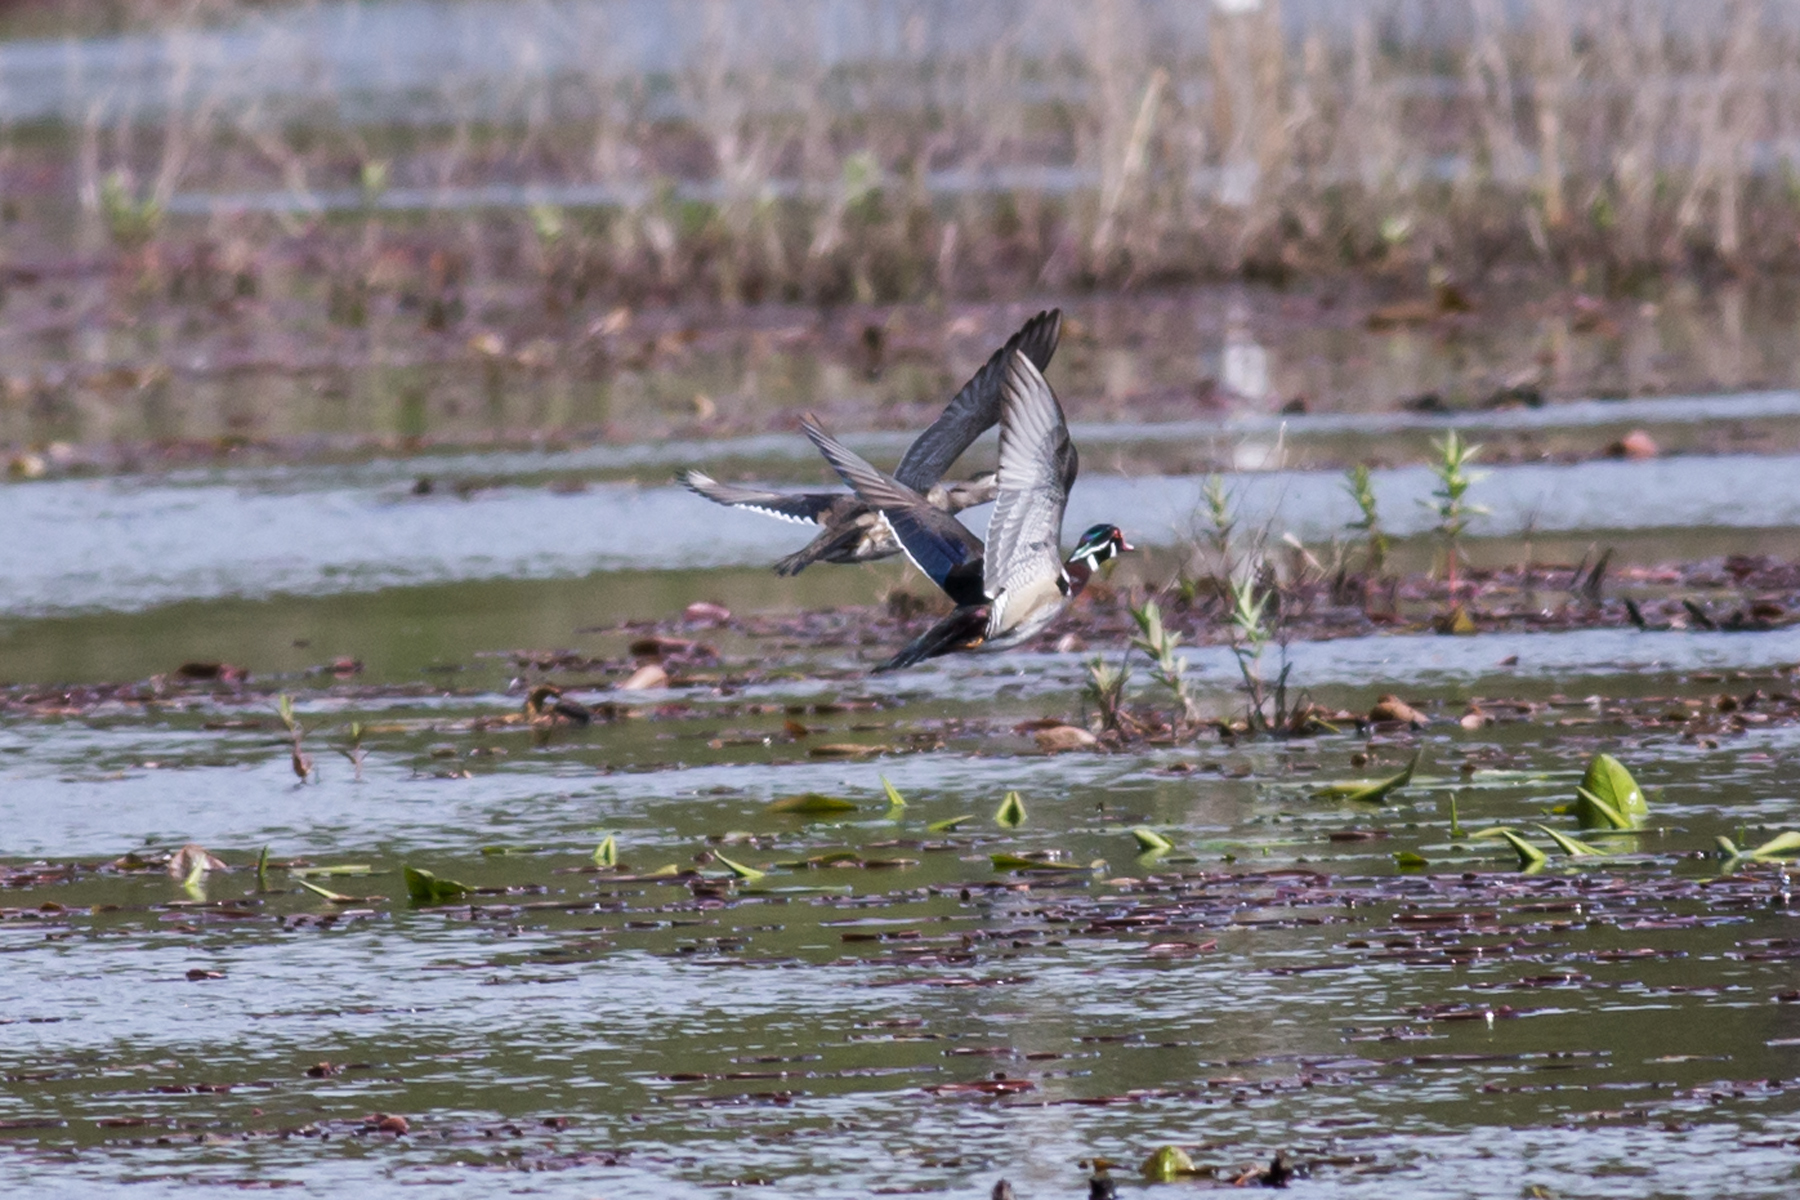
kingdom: Animalia
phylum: Chordata
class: Aves
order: Anseriformes
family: Anatidae
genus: Aix
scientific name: Aix sponsa
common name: Wood duck
